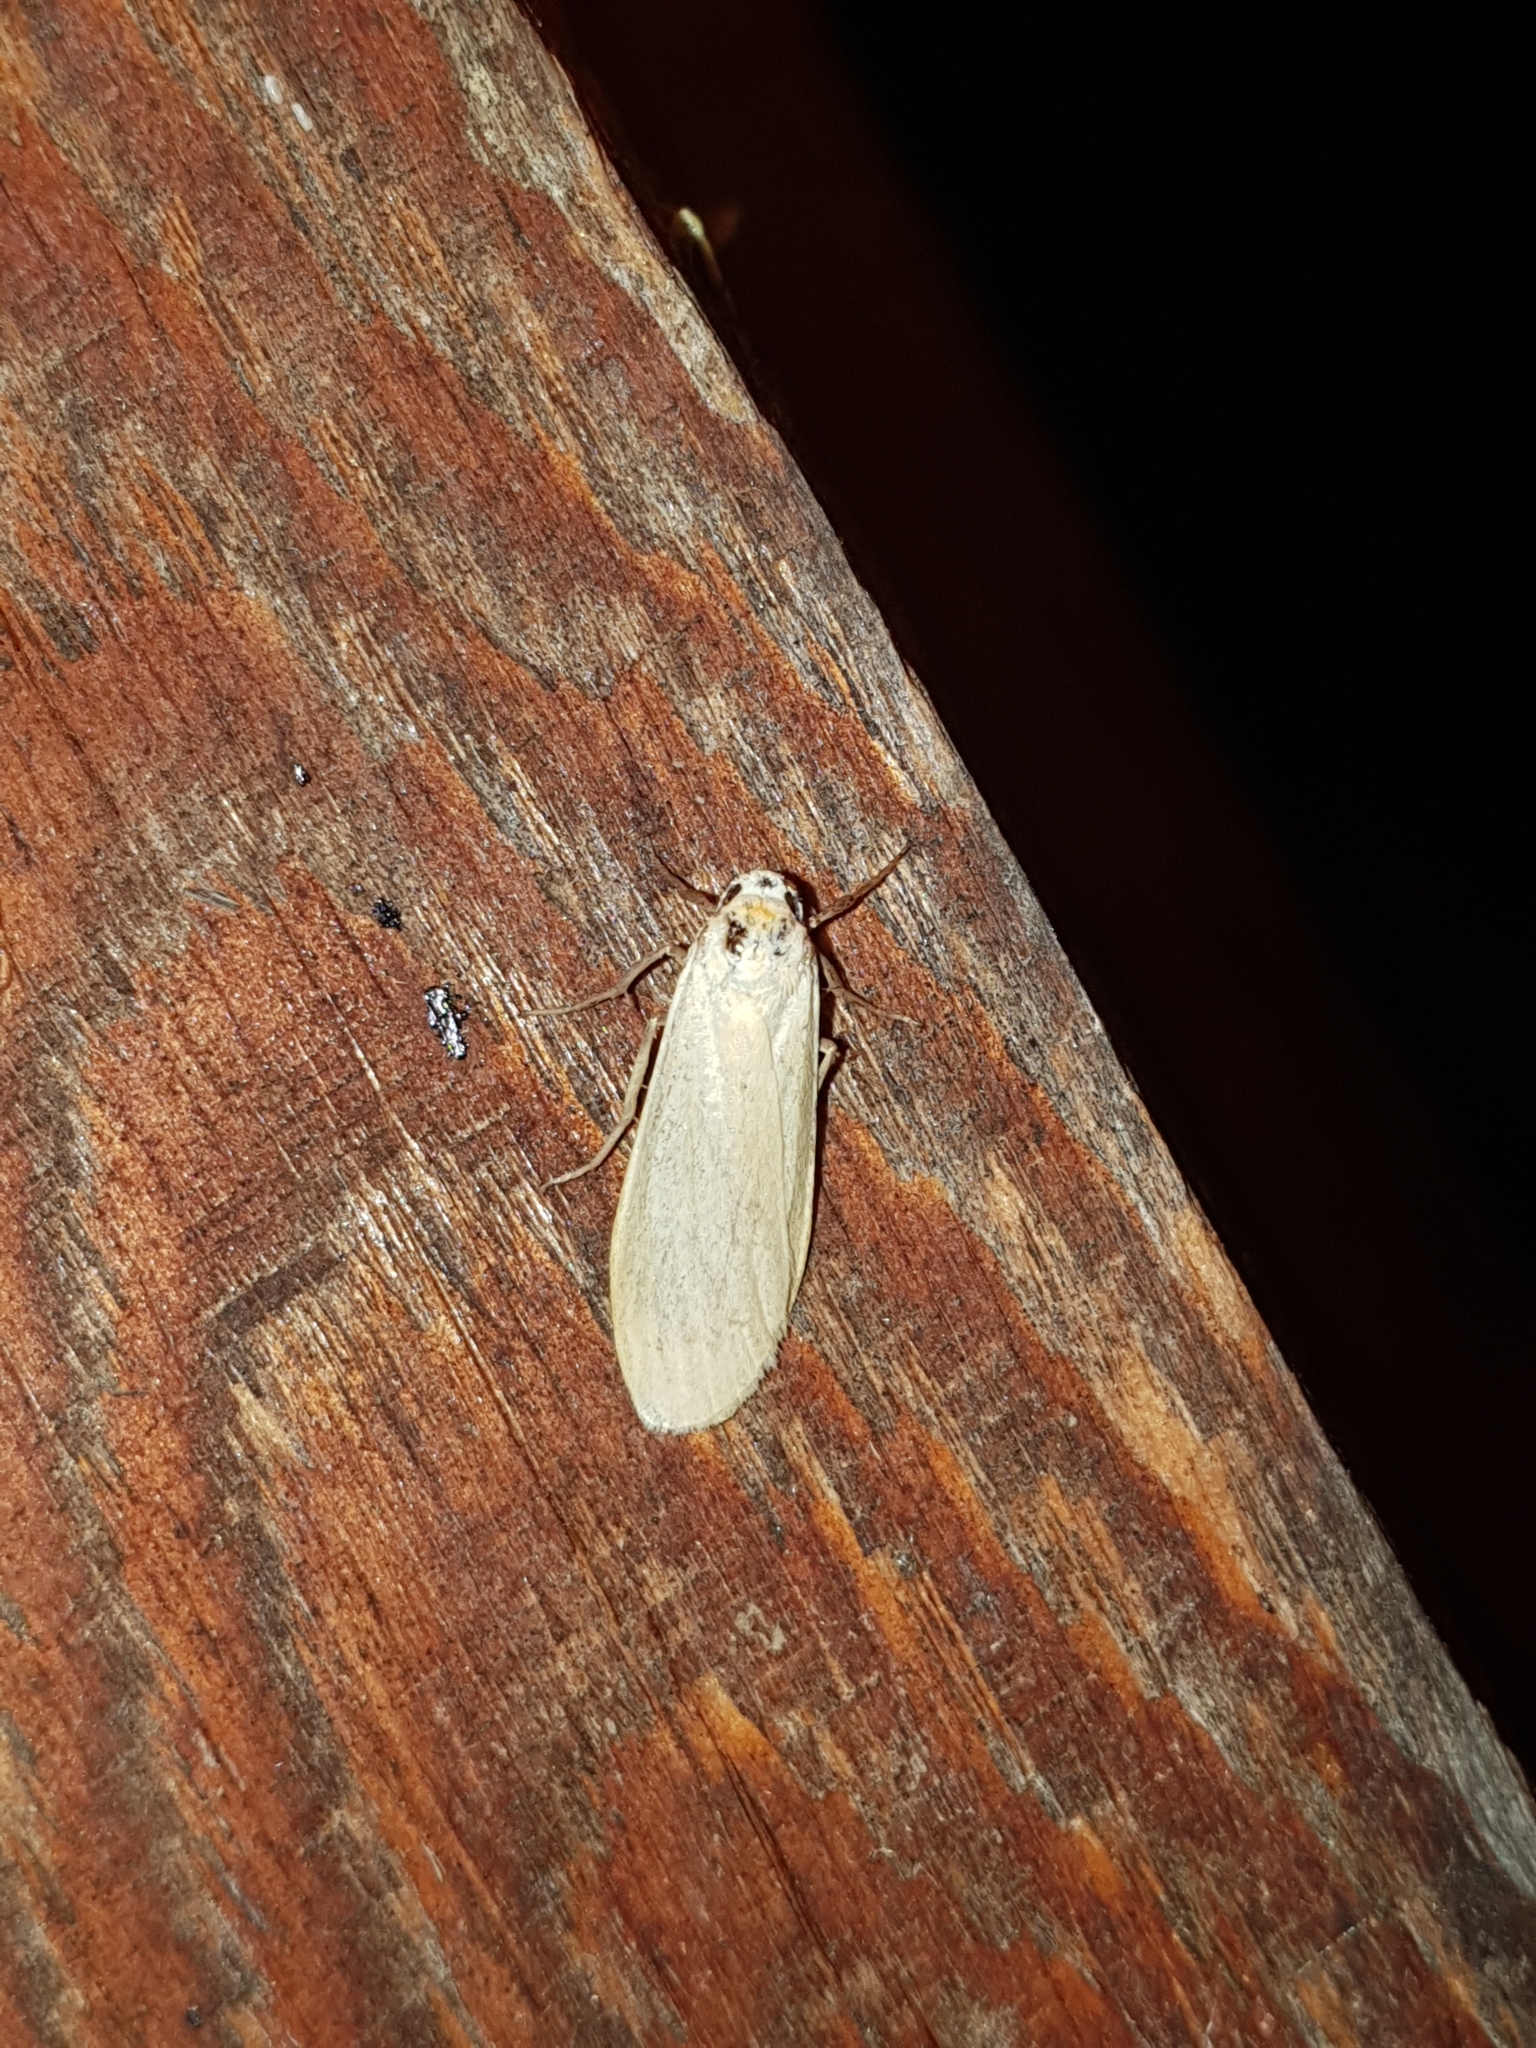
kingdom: Animalia
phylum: Arthropoda
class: Insecta
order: Lepidoptera
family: Erebidae
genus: Collita
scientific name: Collita griseola
